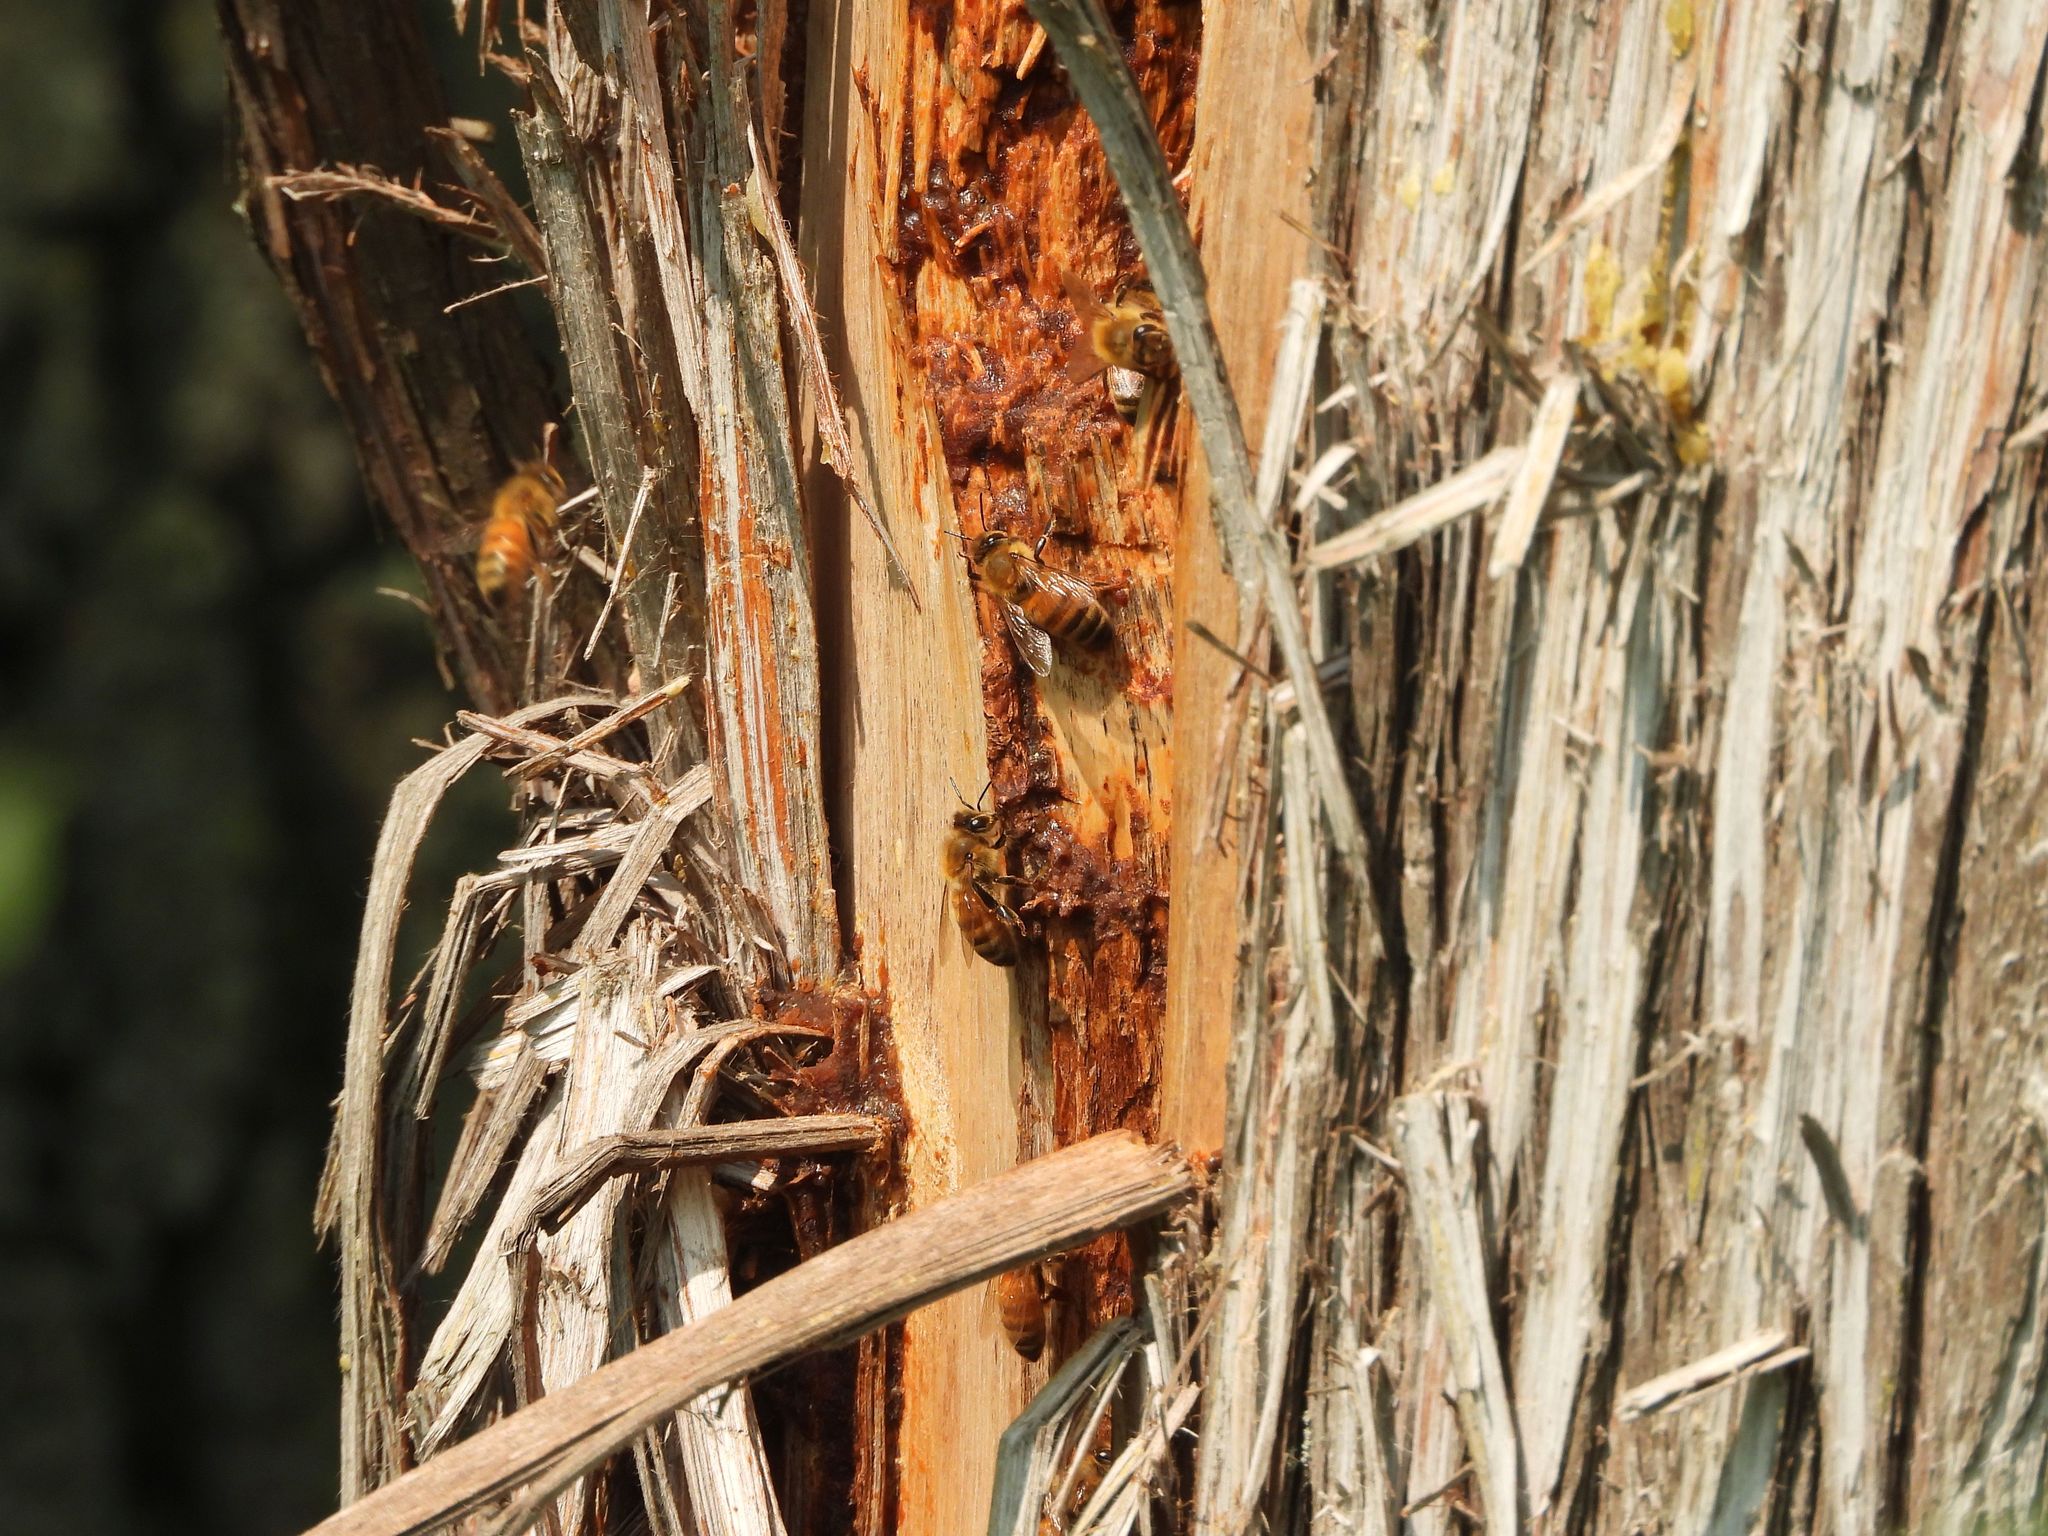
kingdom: Animalia
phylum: Arthropoda
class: Insecta
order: Hymenoptera
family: Apidae
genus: Apis
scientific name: Apis mellifera
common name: Honey bee
